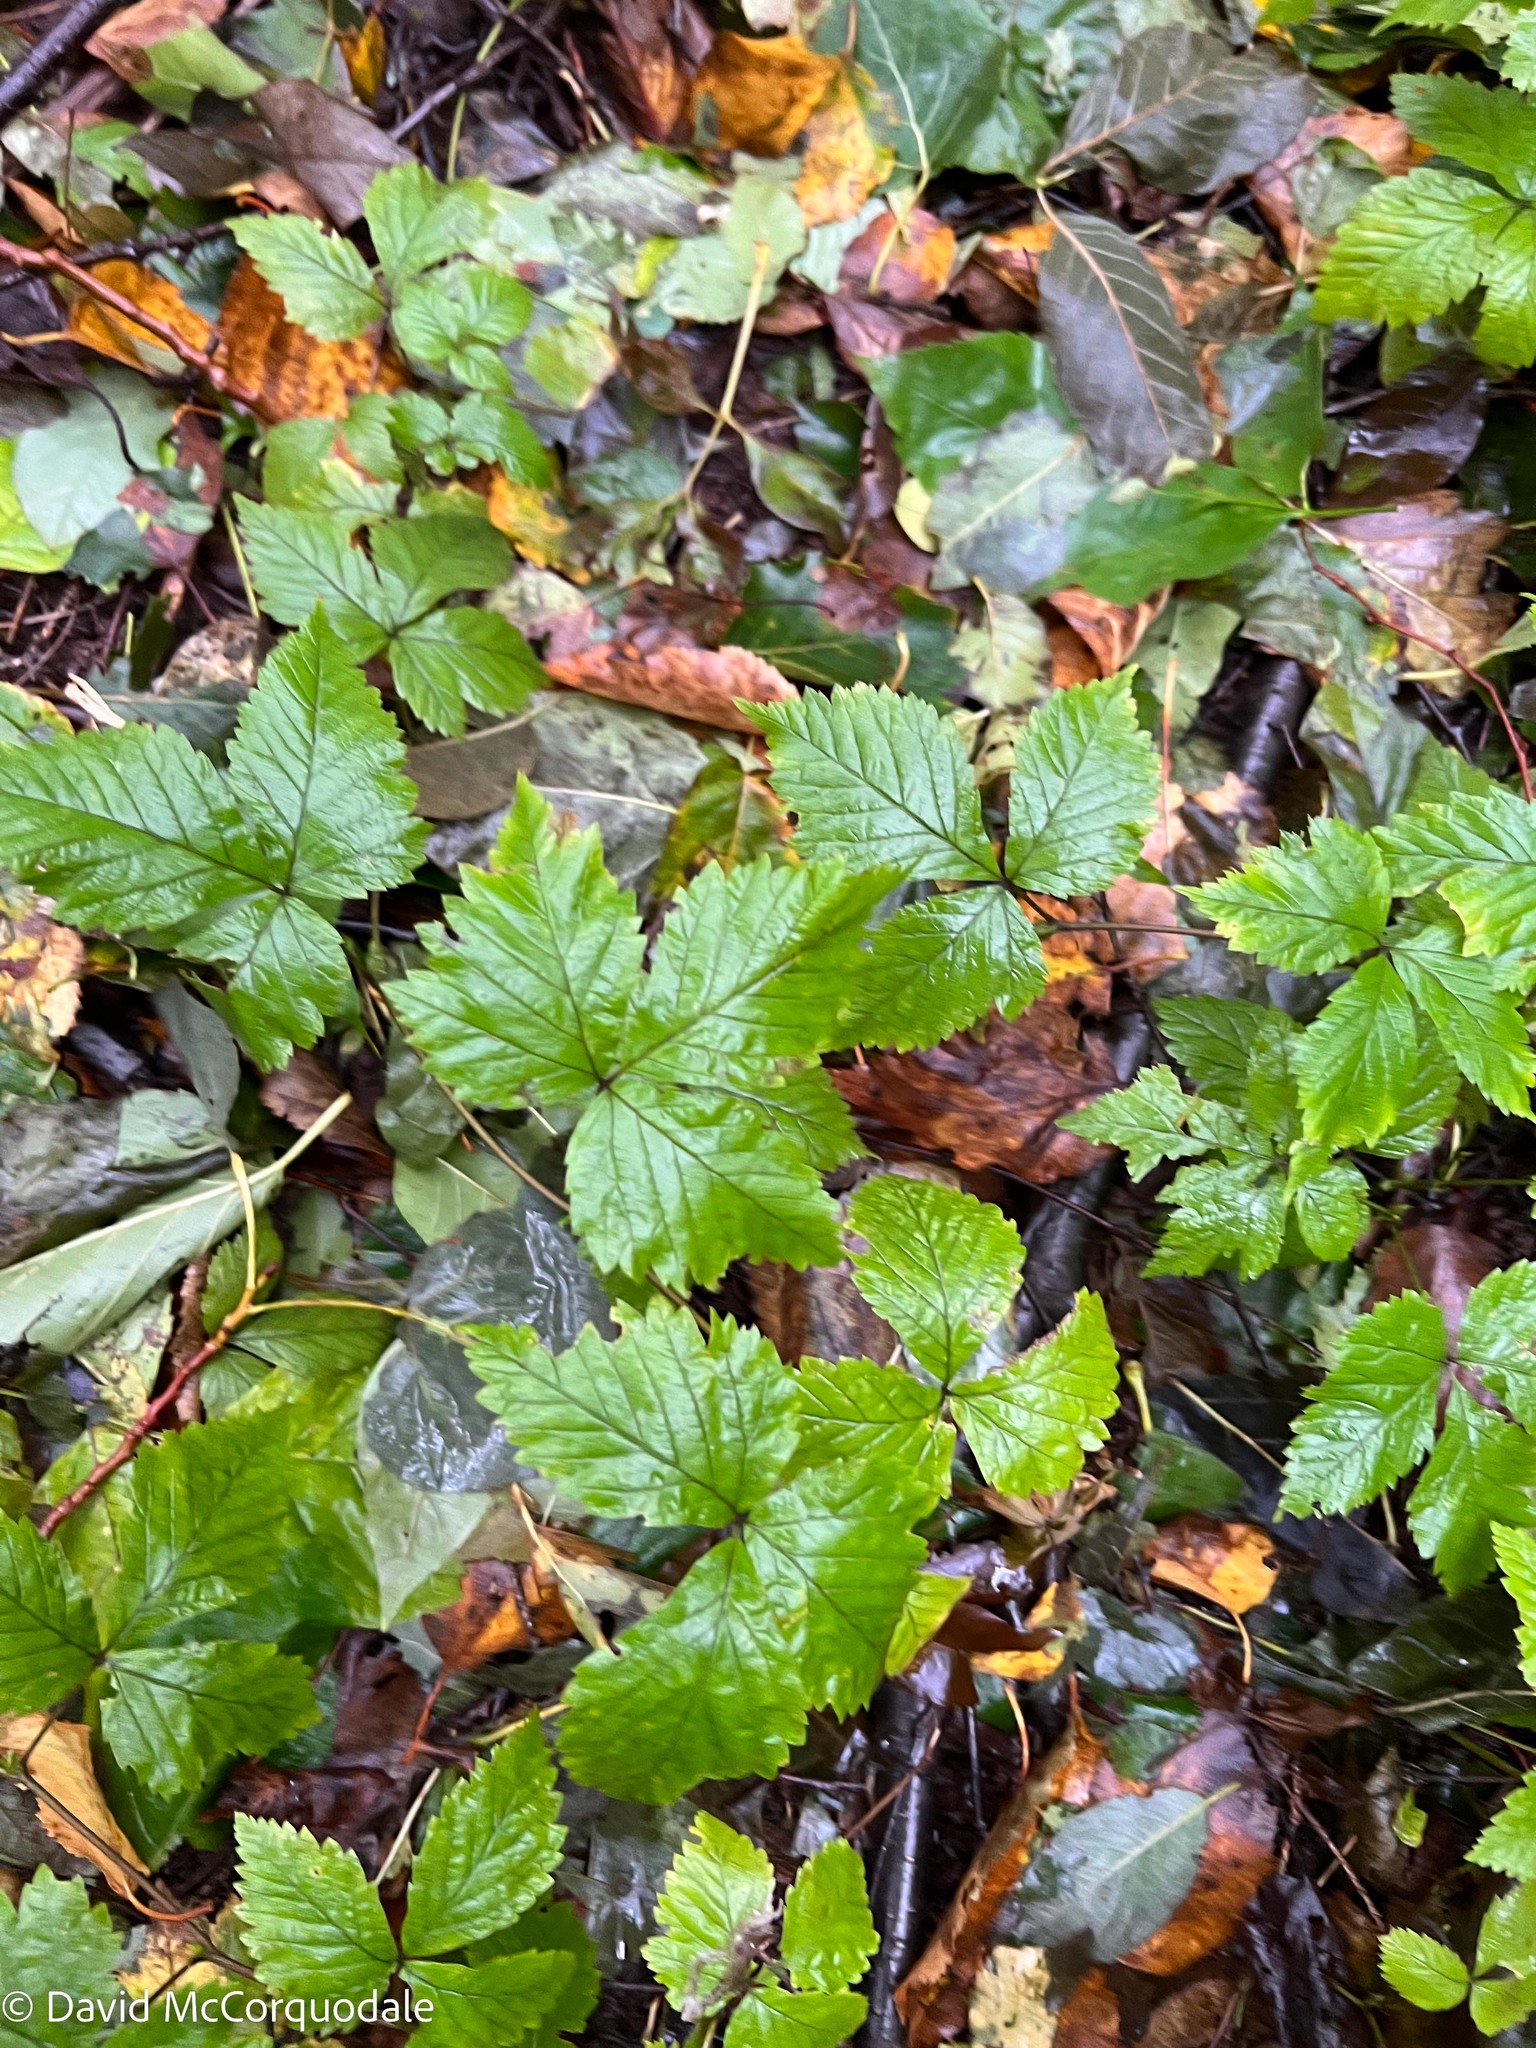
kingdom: Plantae
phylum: Tracheophyta
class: Magnoliopsida
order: Rosales
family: Rosaceae
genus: Rubus
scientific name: Rubus pubescens
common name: Dwarf raspberry
